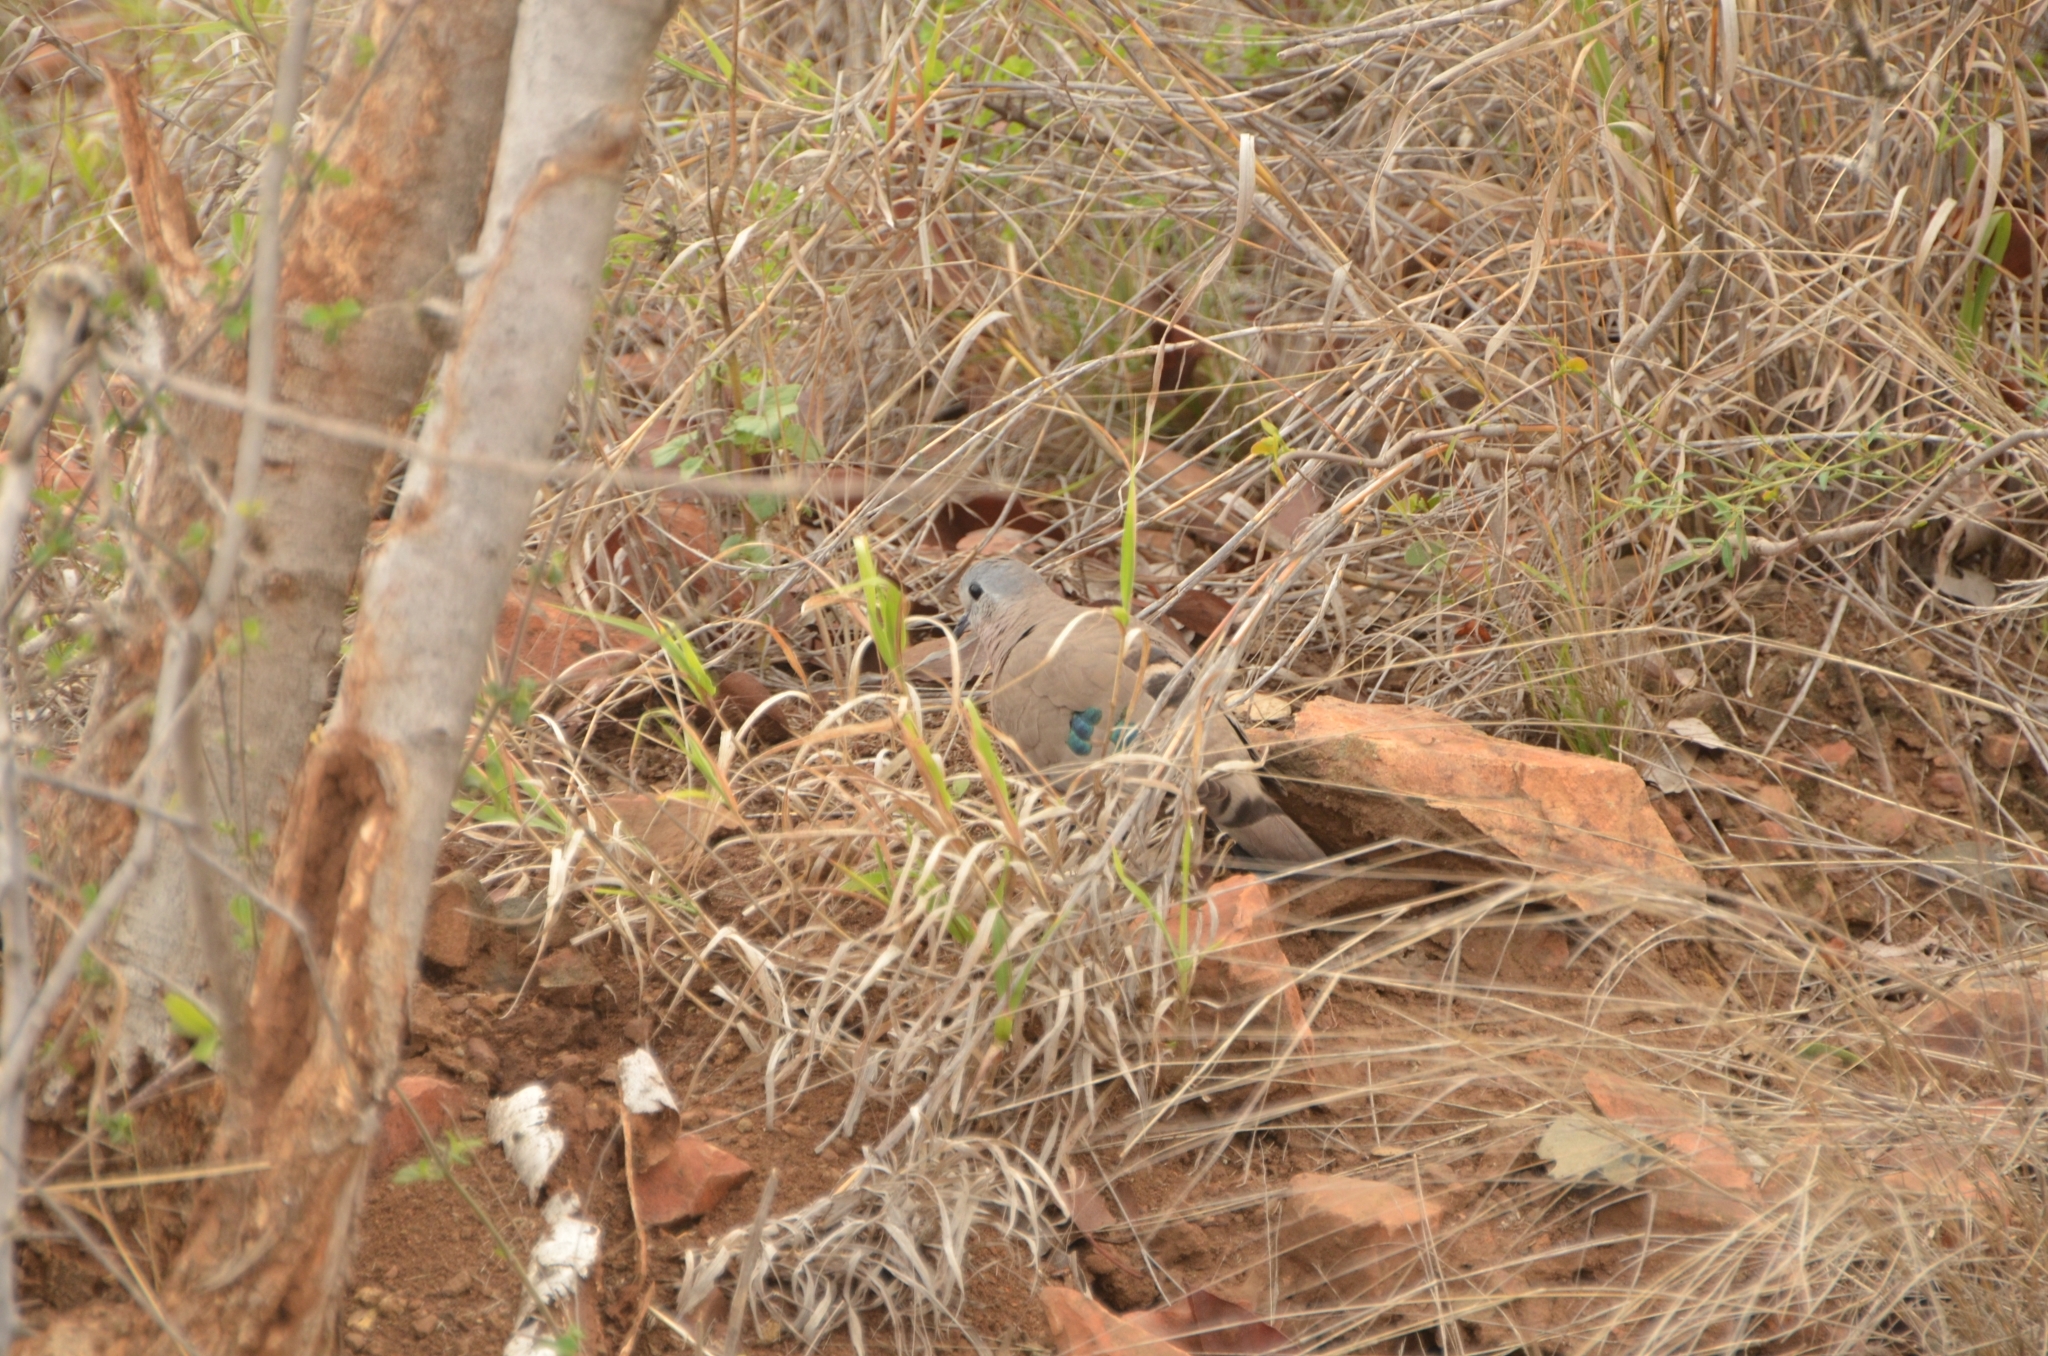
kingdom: Animalia
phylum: Chordata
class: Aves
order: Columbiformes
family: Columbidae
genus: Turtur
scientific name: Turtur chalcospilos
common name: Emerald-spotted wood dove
